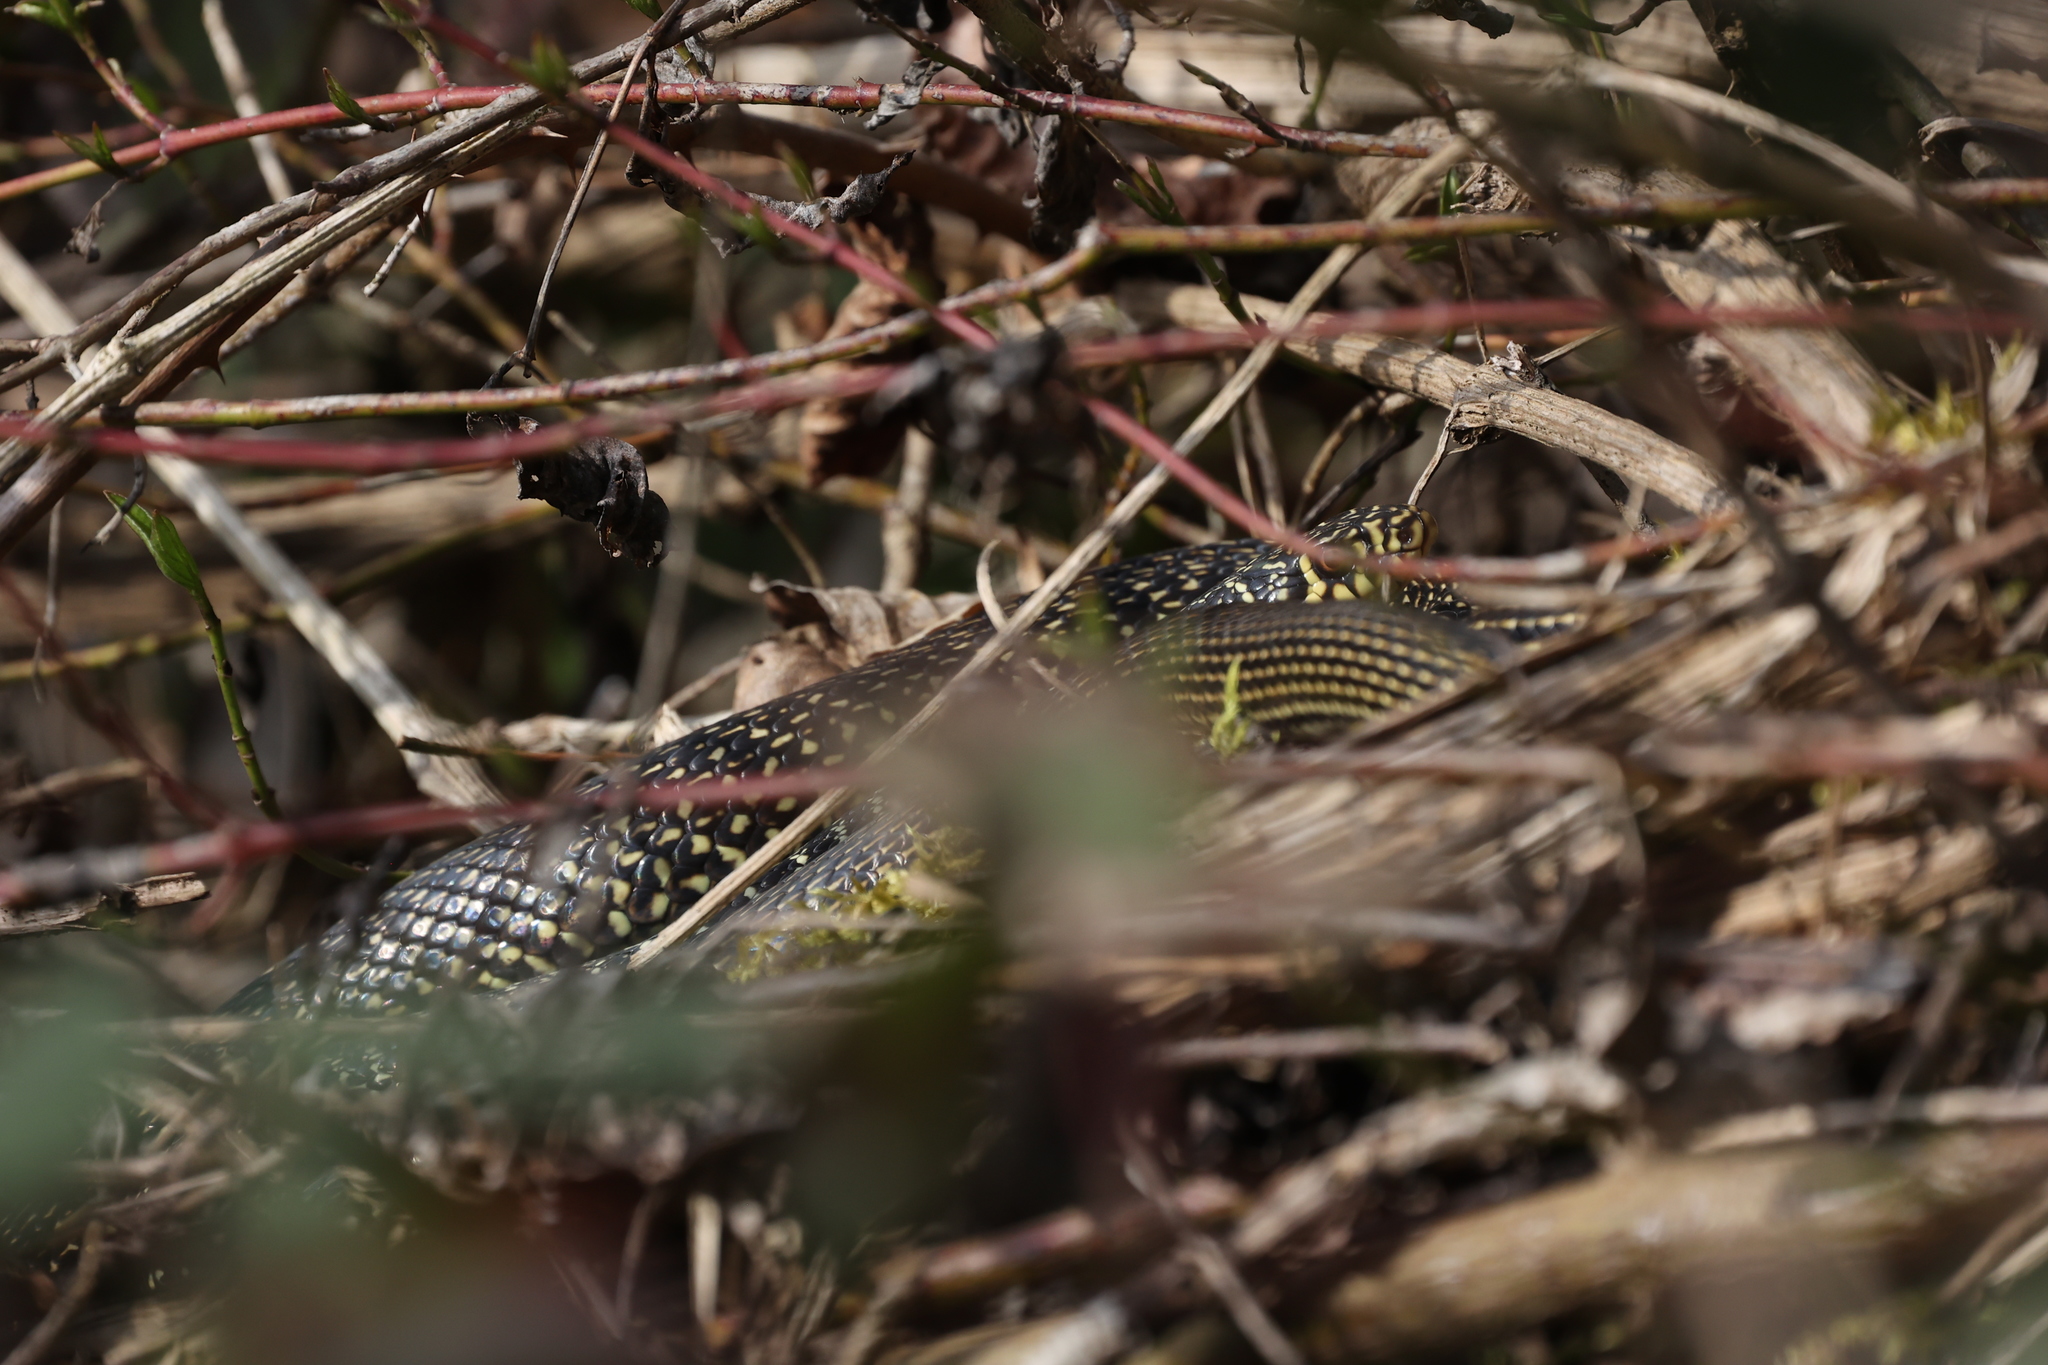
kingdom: Animalia
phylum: Chordata
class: Squamata
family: Colubridae
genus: Hierophis
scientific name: Hierophis viridiflavus
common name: Green whip snake
